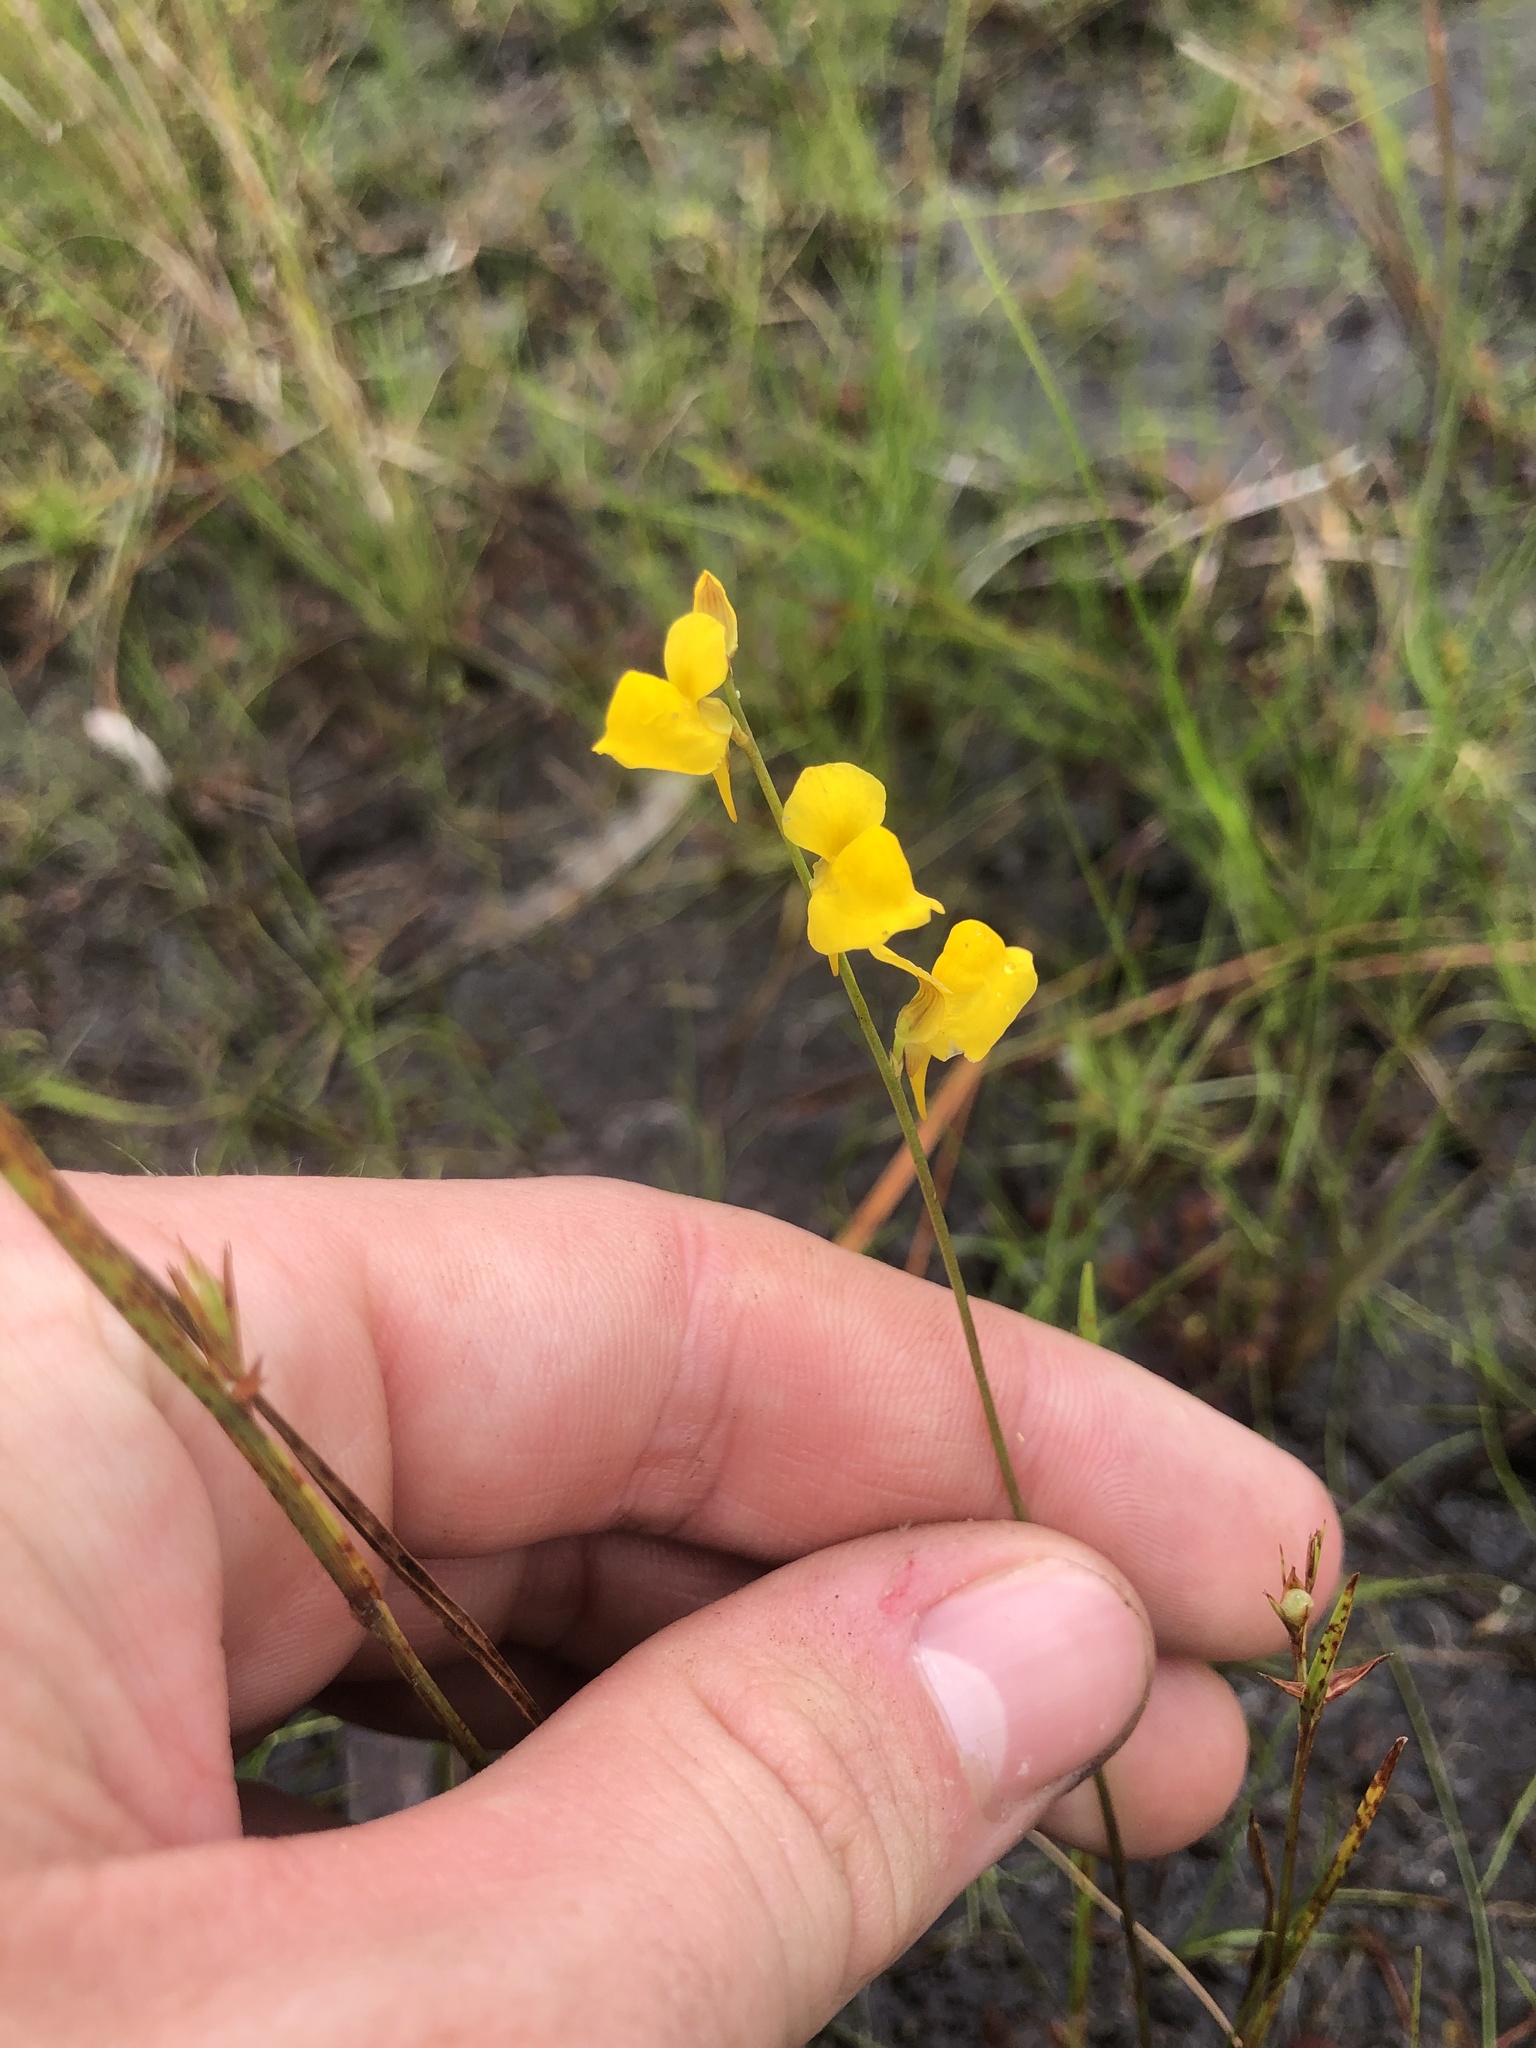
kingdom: Plantae
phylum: Tracheophyta
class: Magnoliopsida
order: Lamiales
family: Lentibulariaceae
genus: Utricularia
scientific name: Utricularia juncea
